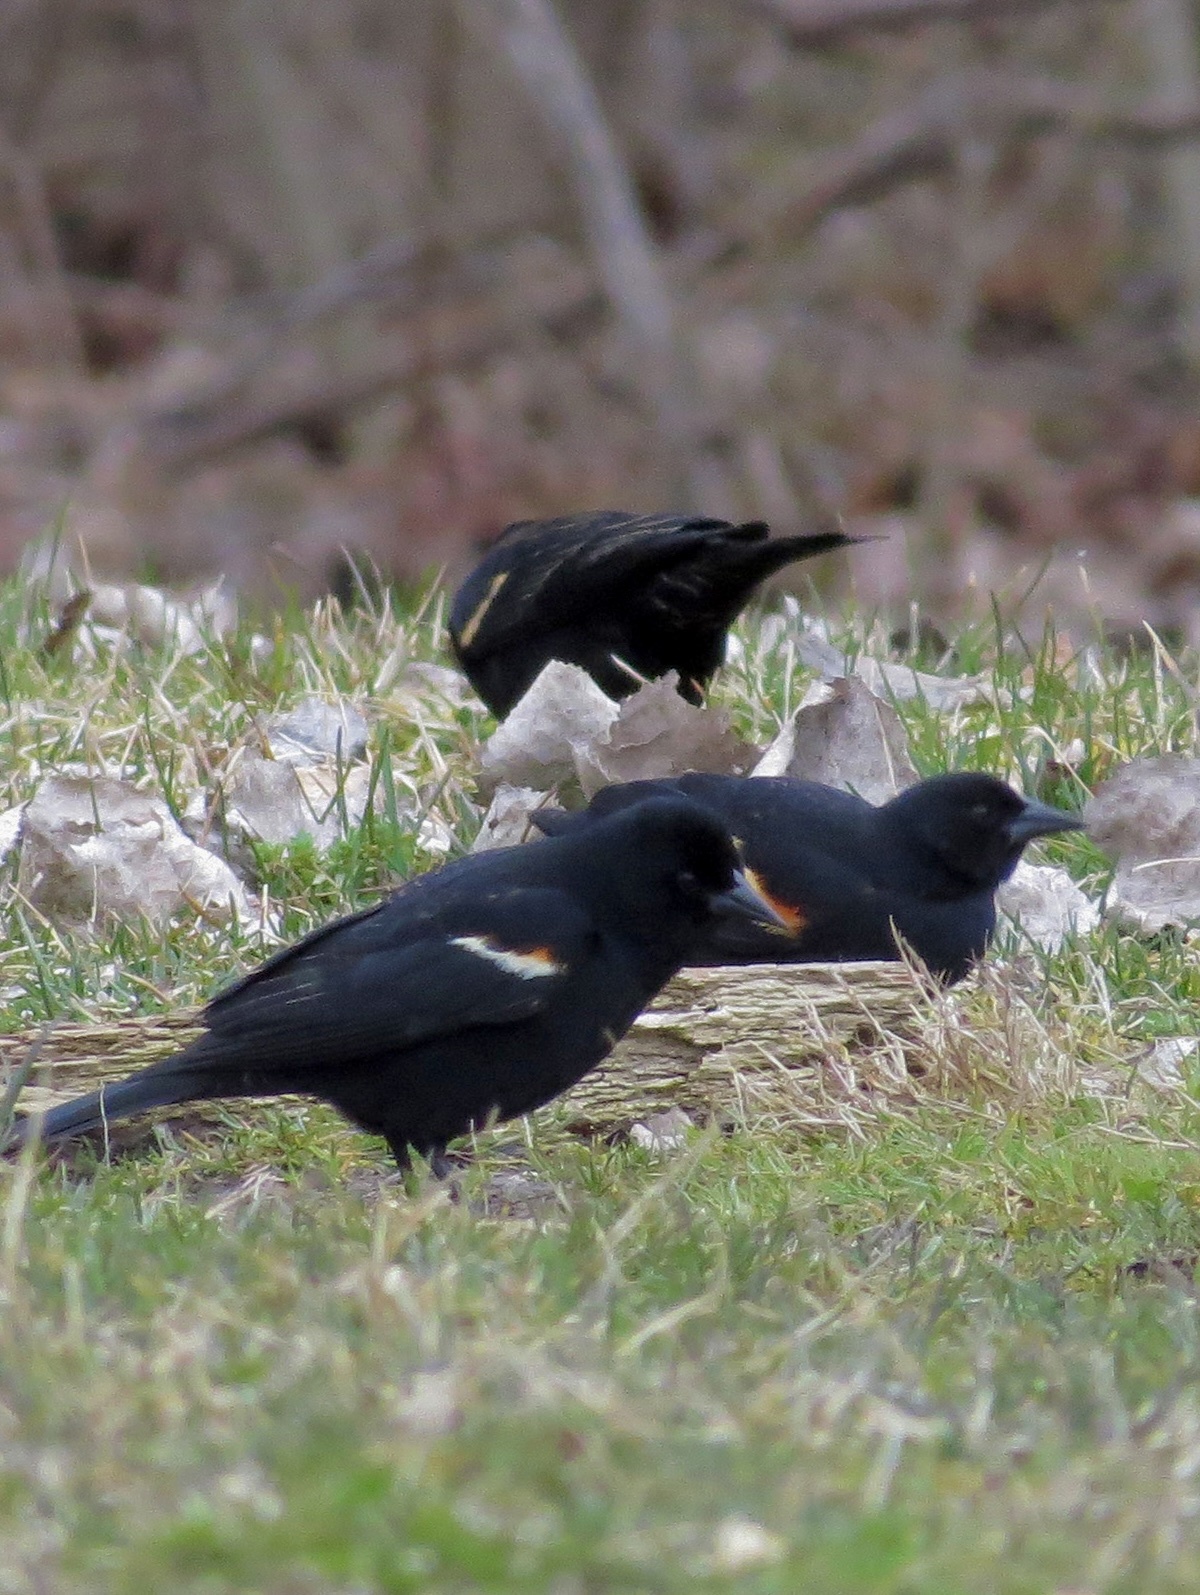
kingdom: Animalia
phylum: Chordata
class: Aves
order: Passeriformes
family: Icteridae
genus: Agelaius
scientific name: Agelaius phoeniceus
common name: Red-winged blackbird
